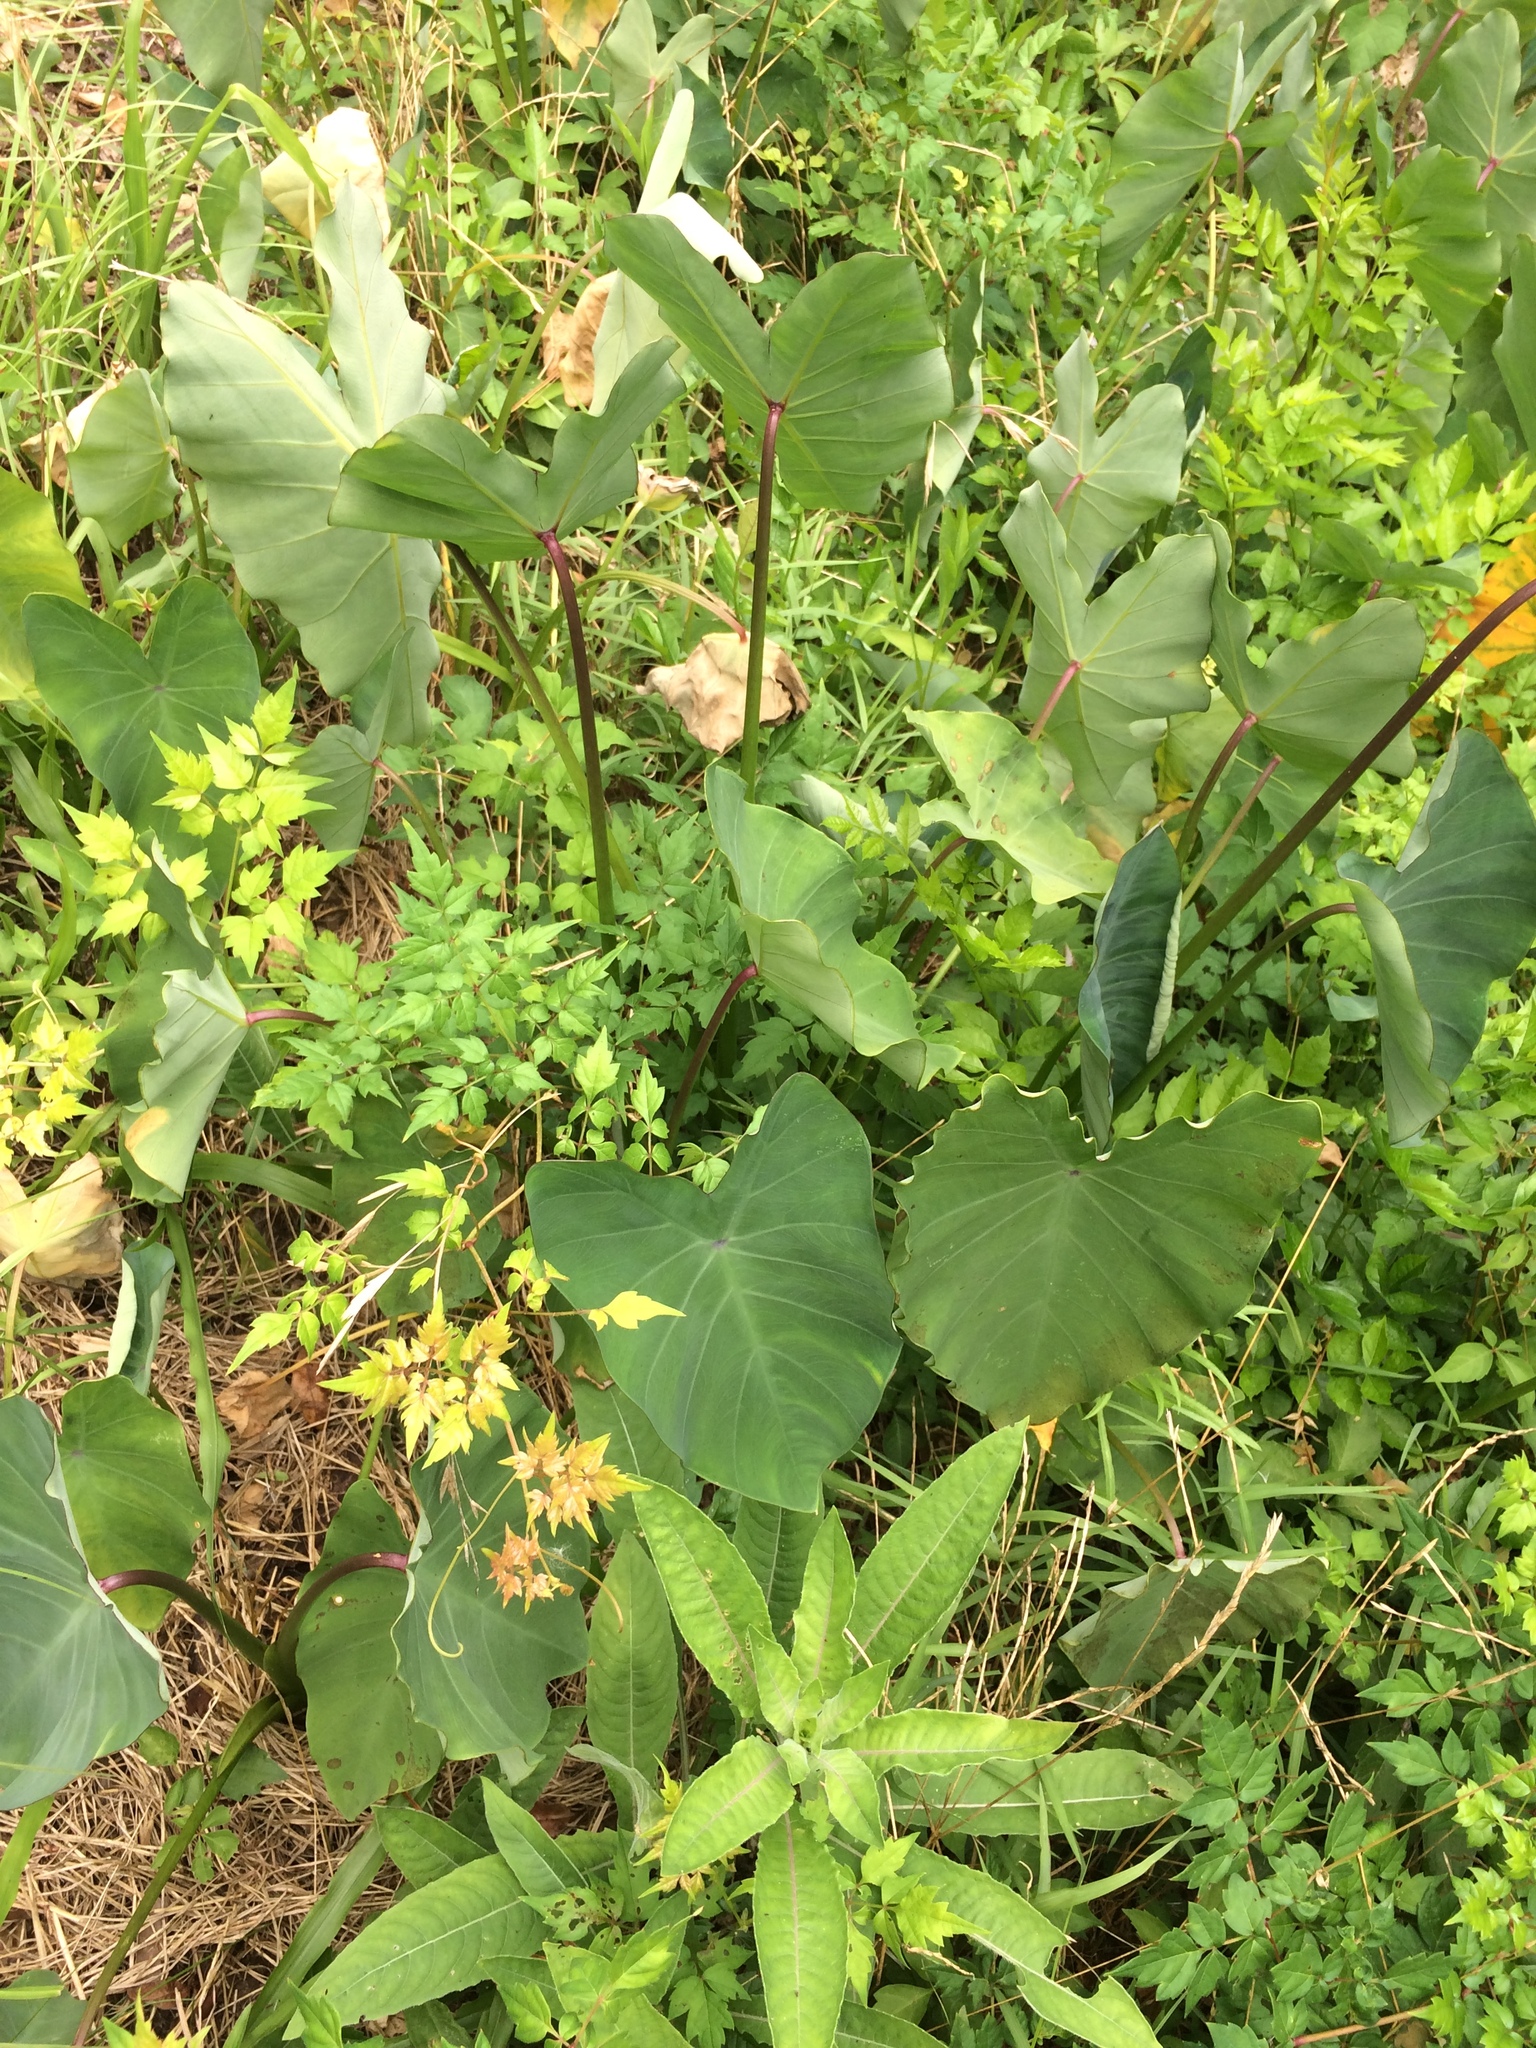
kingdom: Plantae
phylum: Tracheophyta
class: Magnoliopsida
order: Vitales
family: Vitaceae
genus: Nekemias
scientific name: Nekemias arborea
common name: Peppervine
